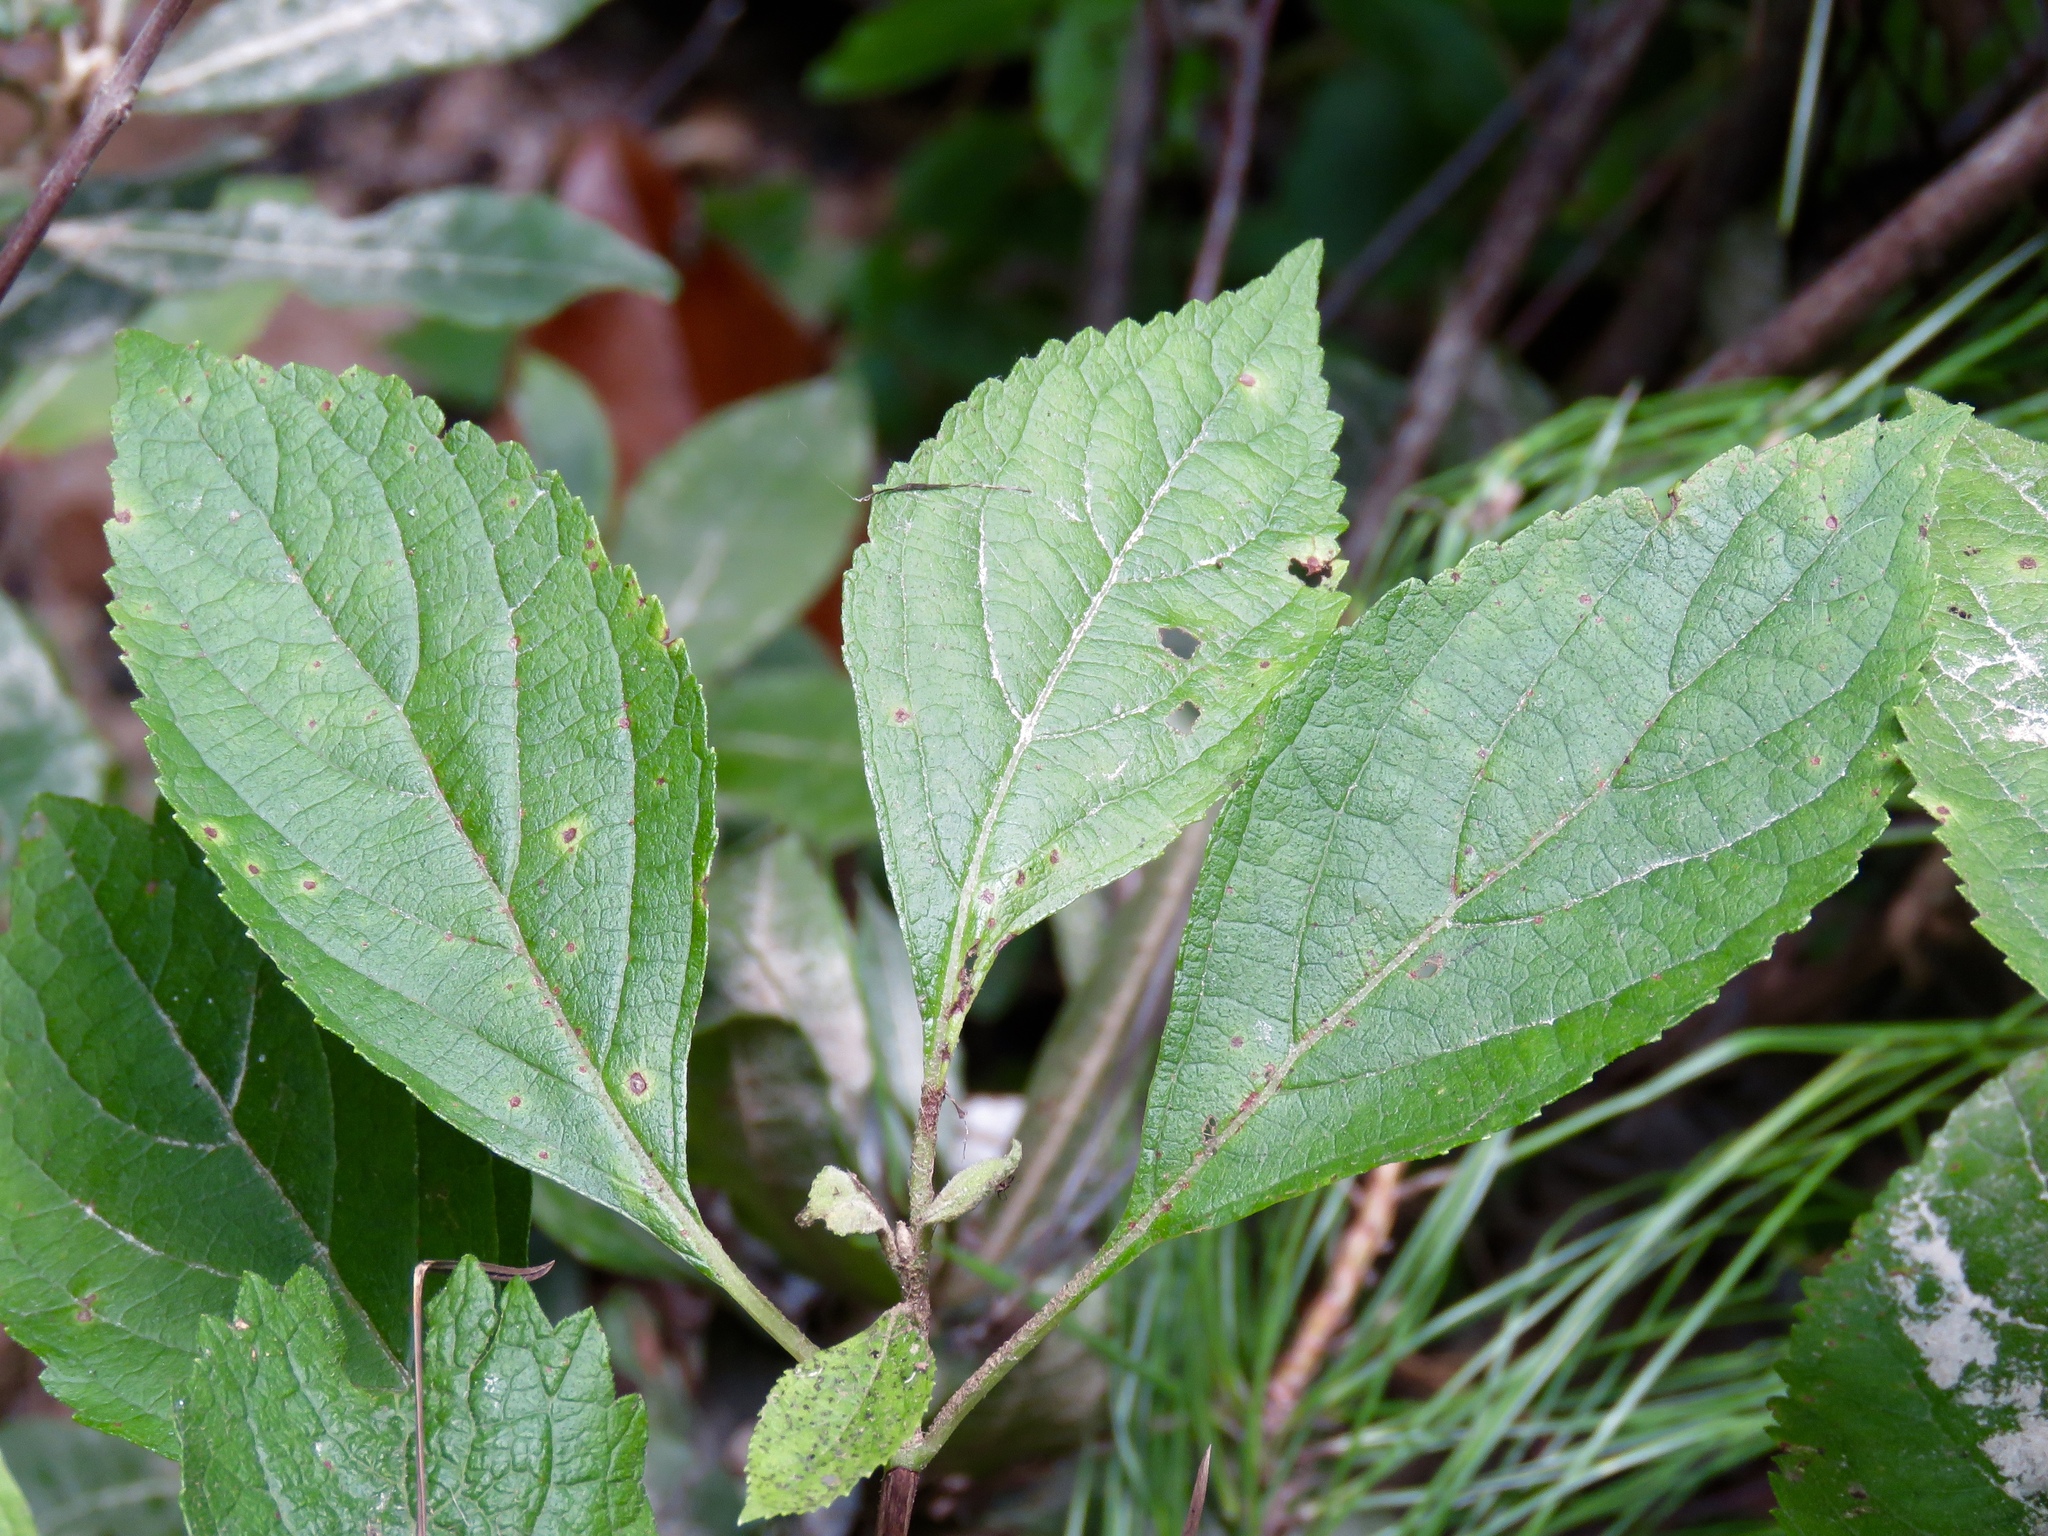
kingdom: Plantae
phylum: Tracheophyta
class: Magnoliopsida
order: Lamiales
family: Lamiaceae
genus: Callicarpa
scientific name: Callicarpa americana
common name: American beautyberry
